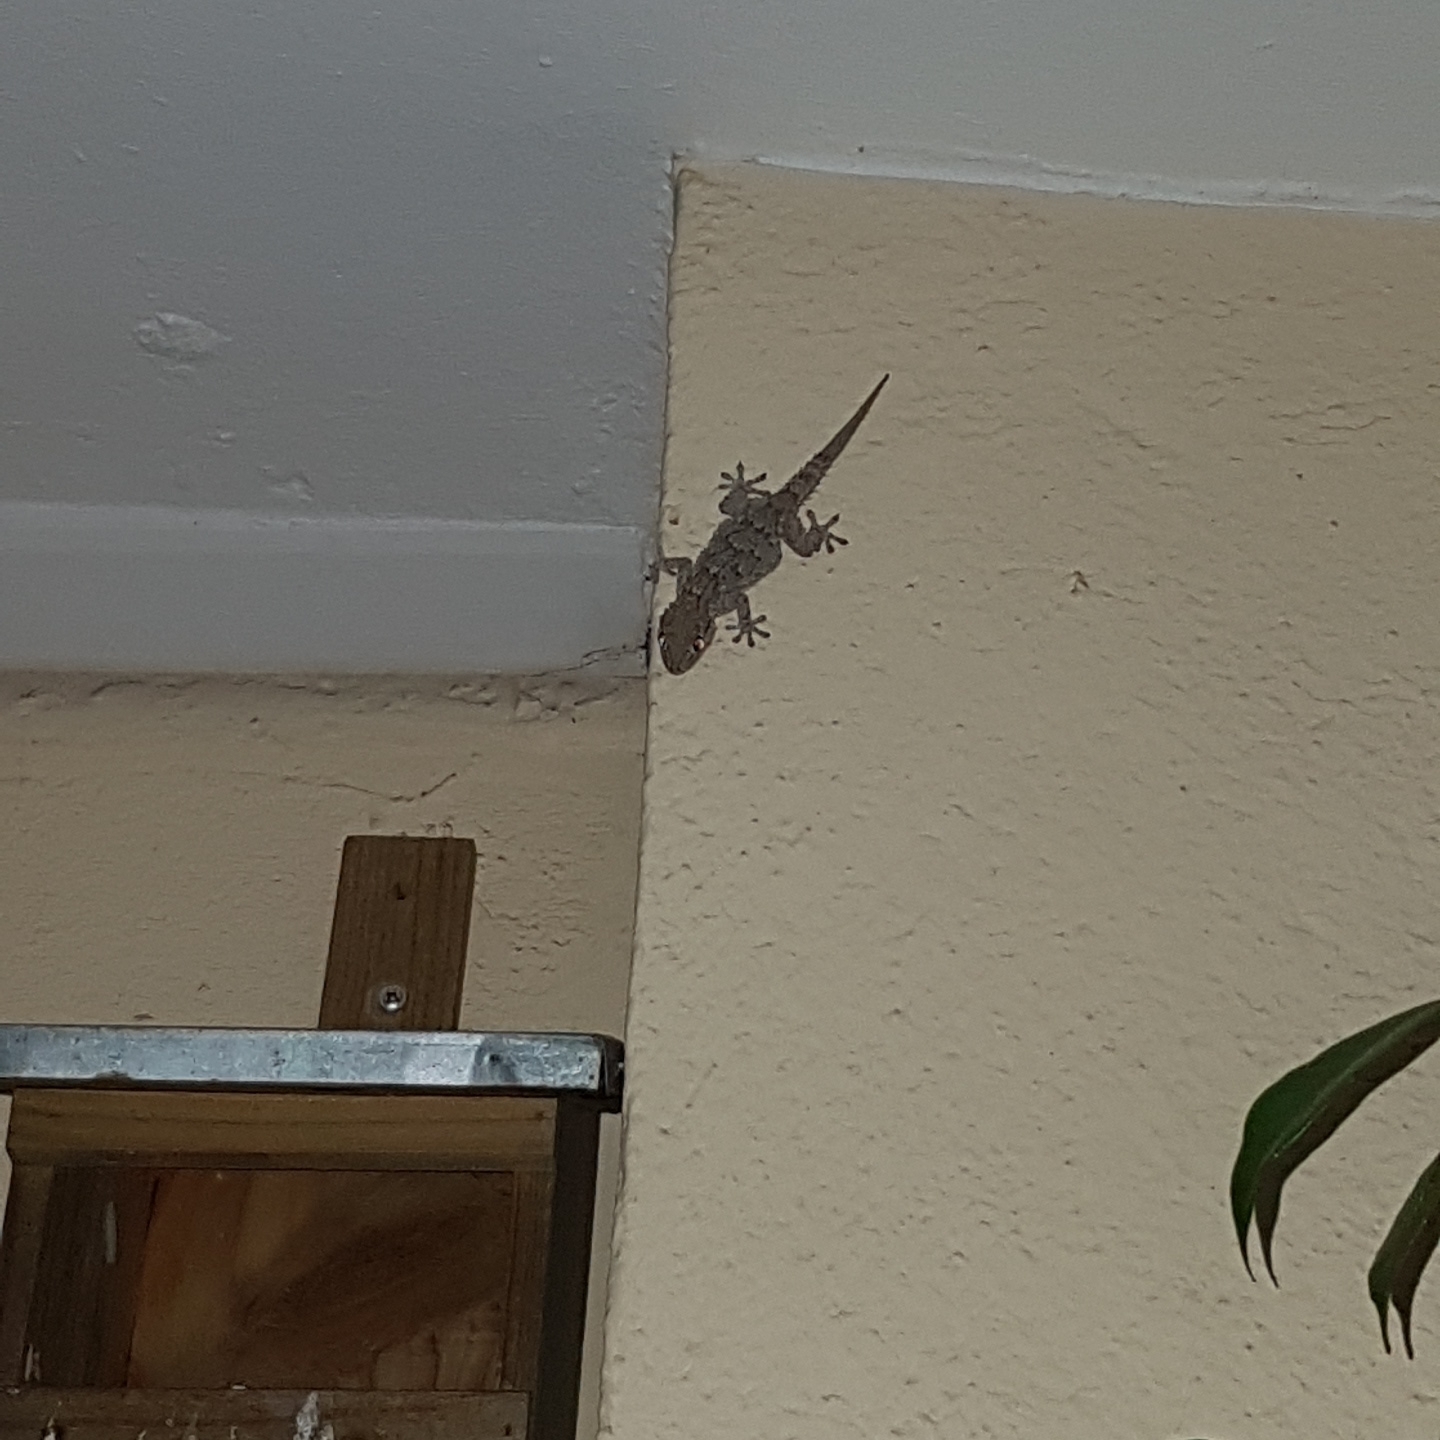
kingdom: Animalia
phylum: Chordata
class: Squamata
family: Phyllodactylidae
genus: Tarentola
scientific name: Tarentola mauritanica
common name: Moorish gecko
